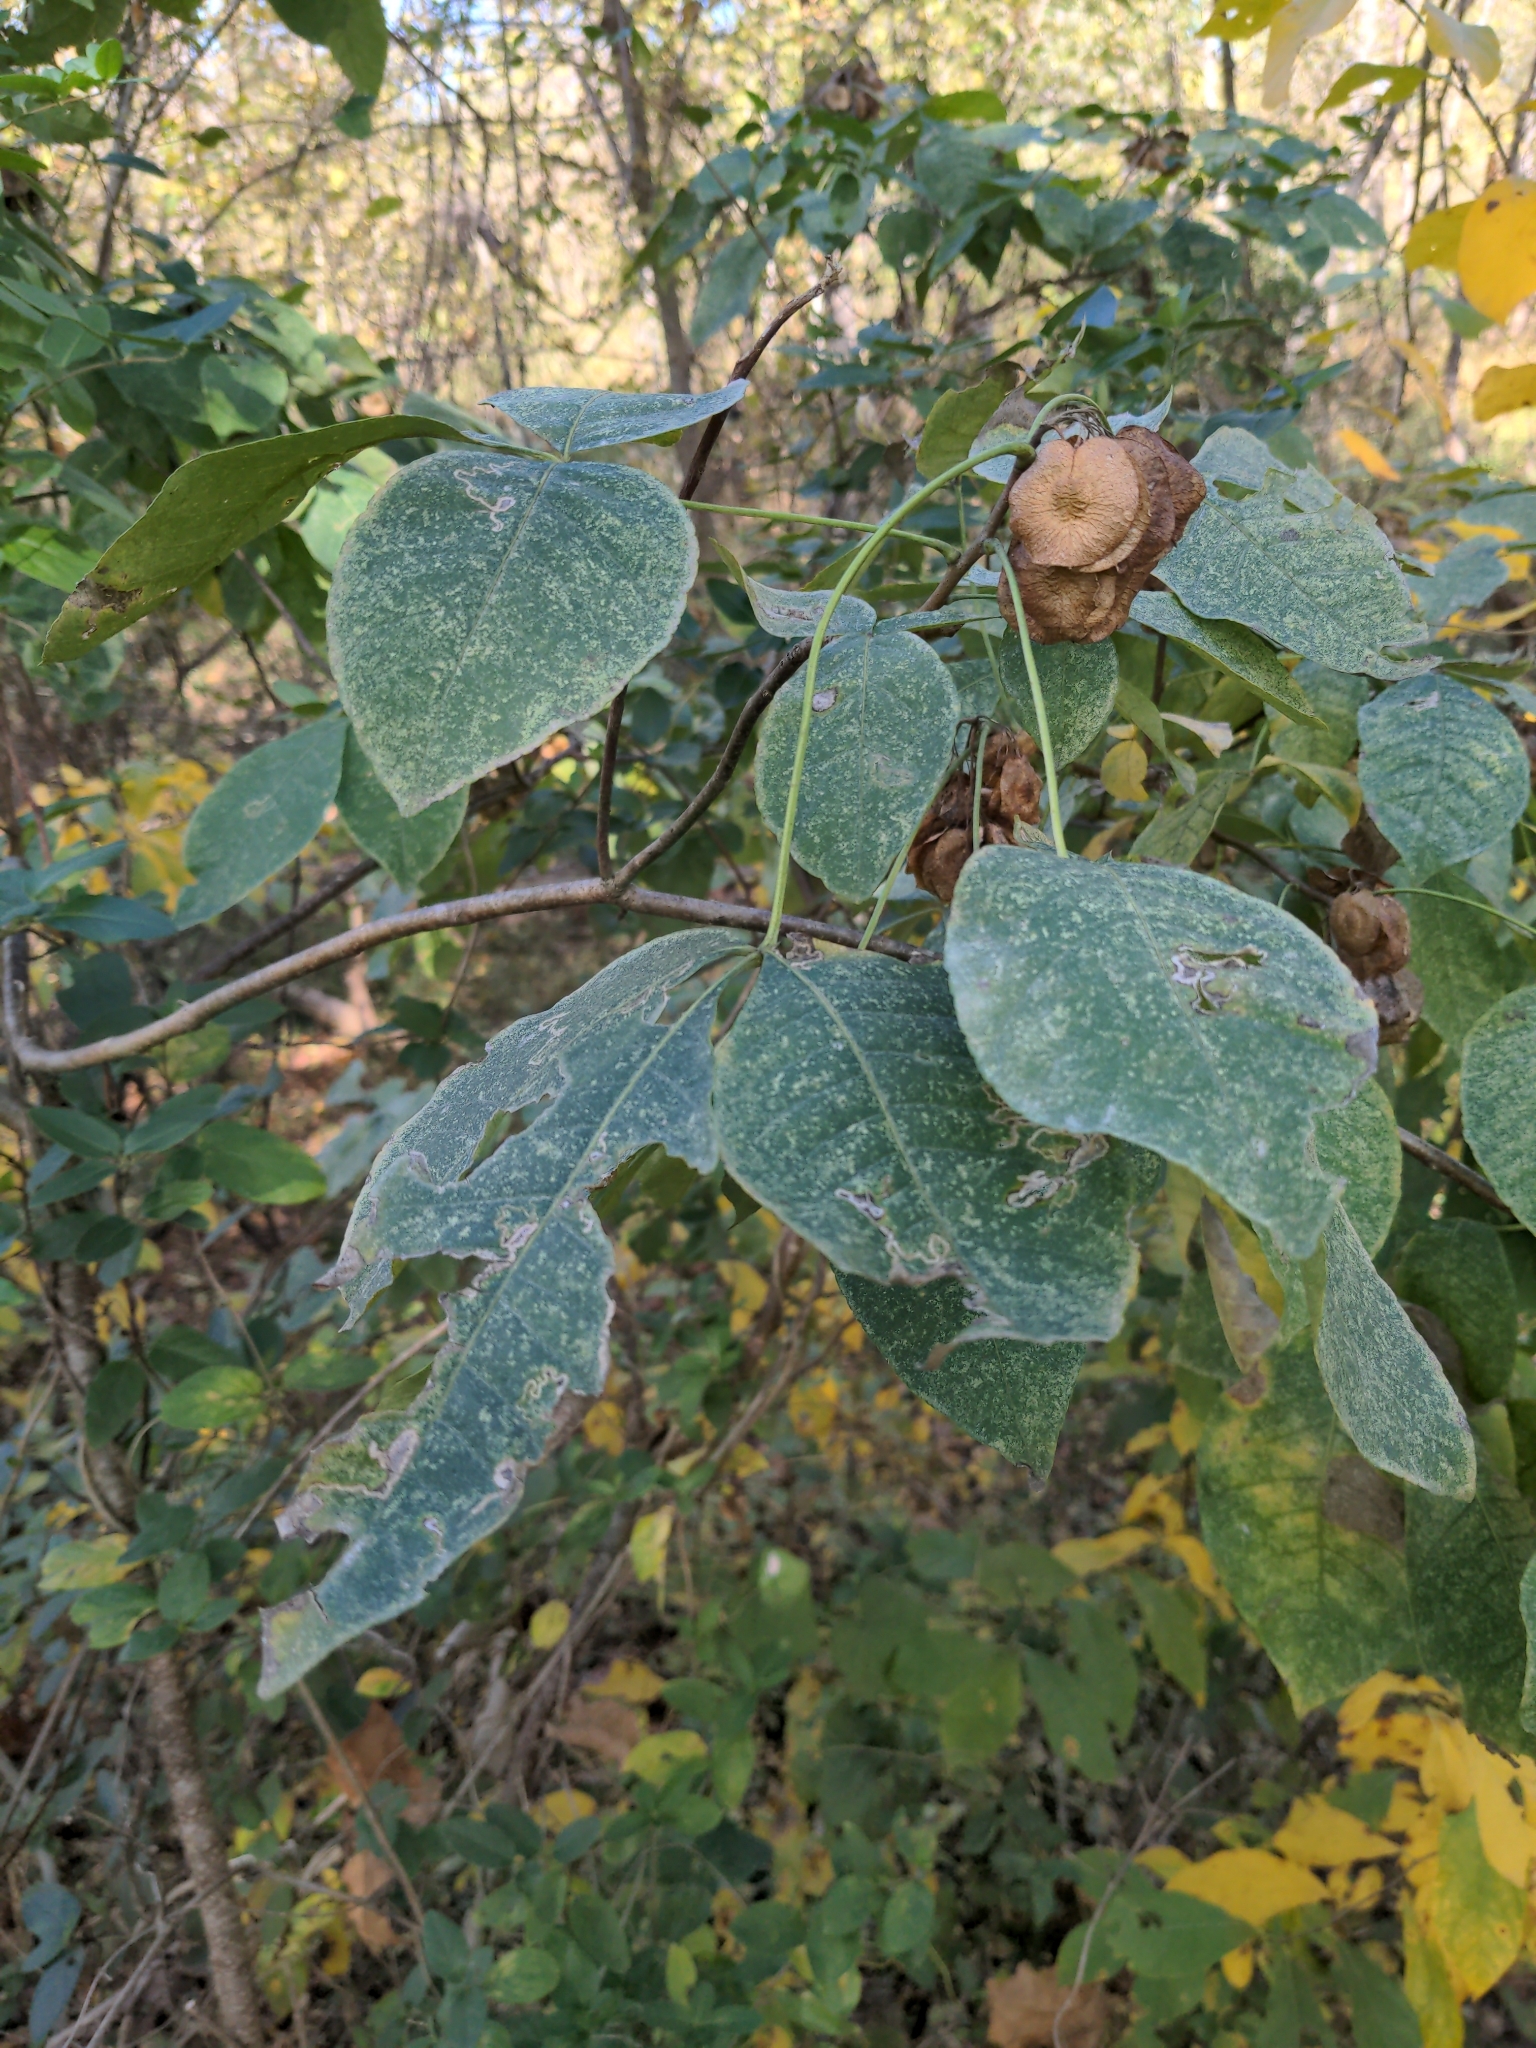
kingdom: Plantae
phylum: Tracheophyta
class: Magnoliopsida
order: Sapindales
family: Rutaceae
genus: Ptelea
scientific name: Ptelea trifoliata
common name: Common hop-tree
